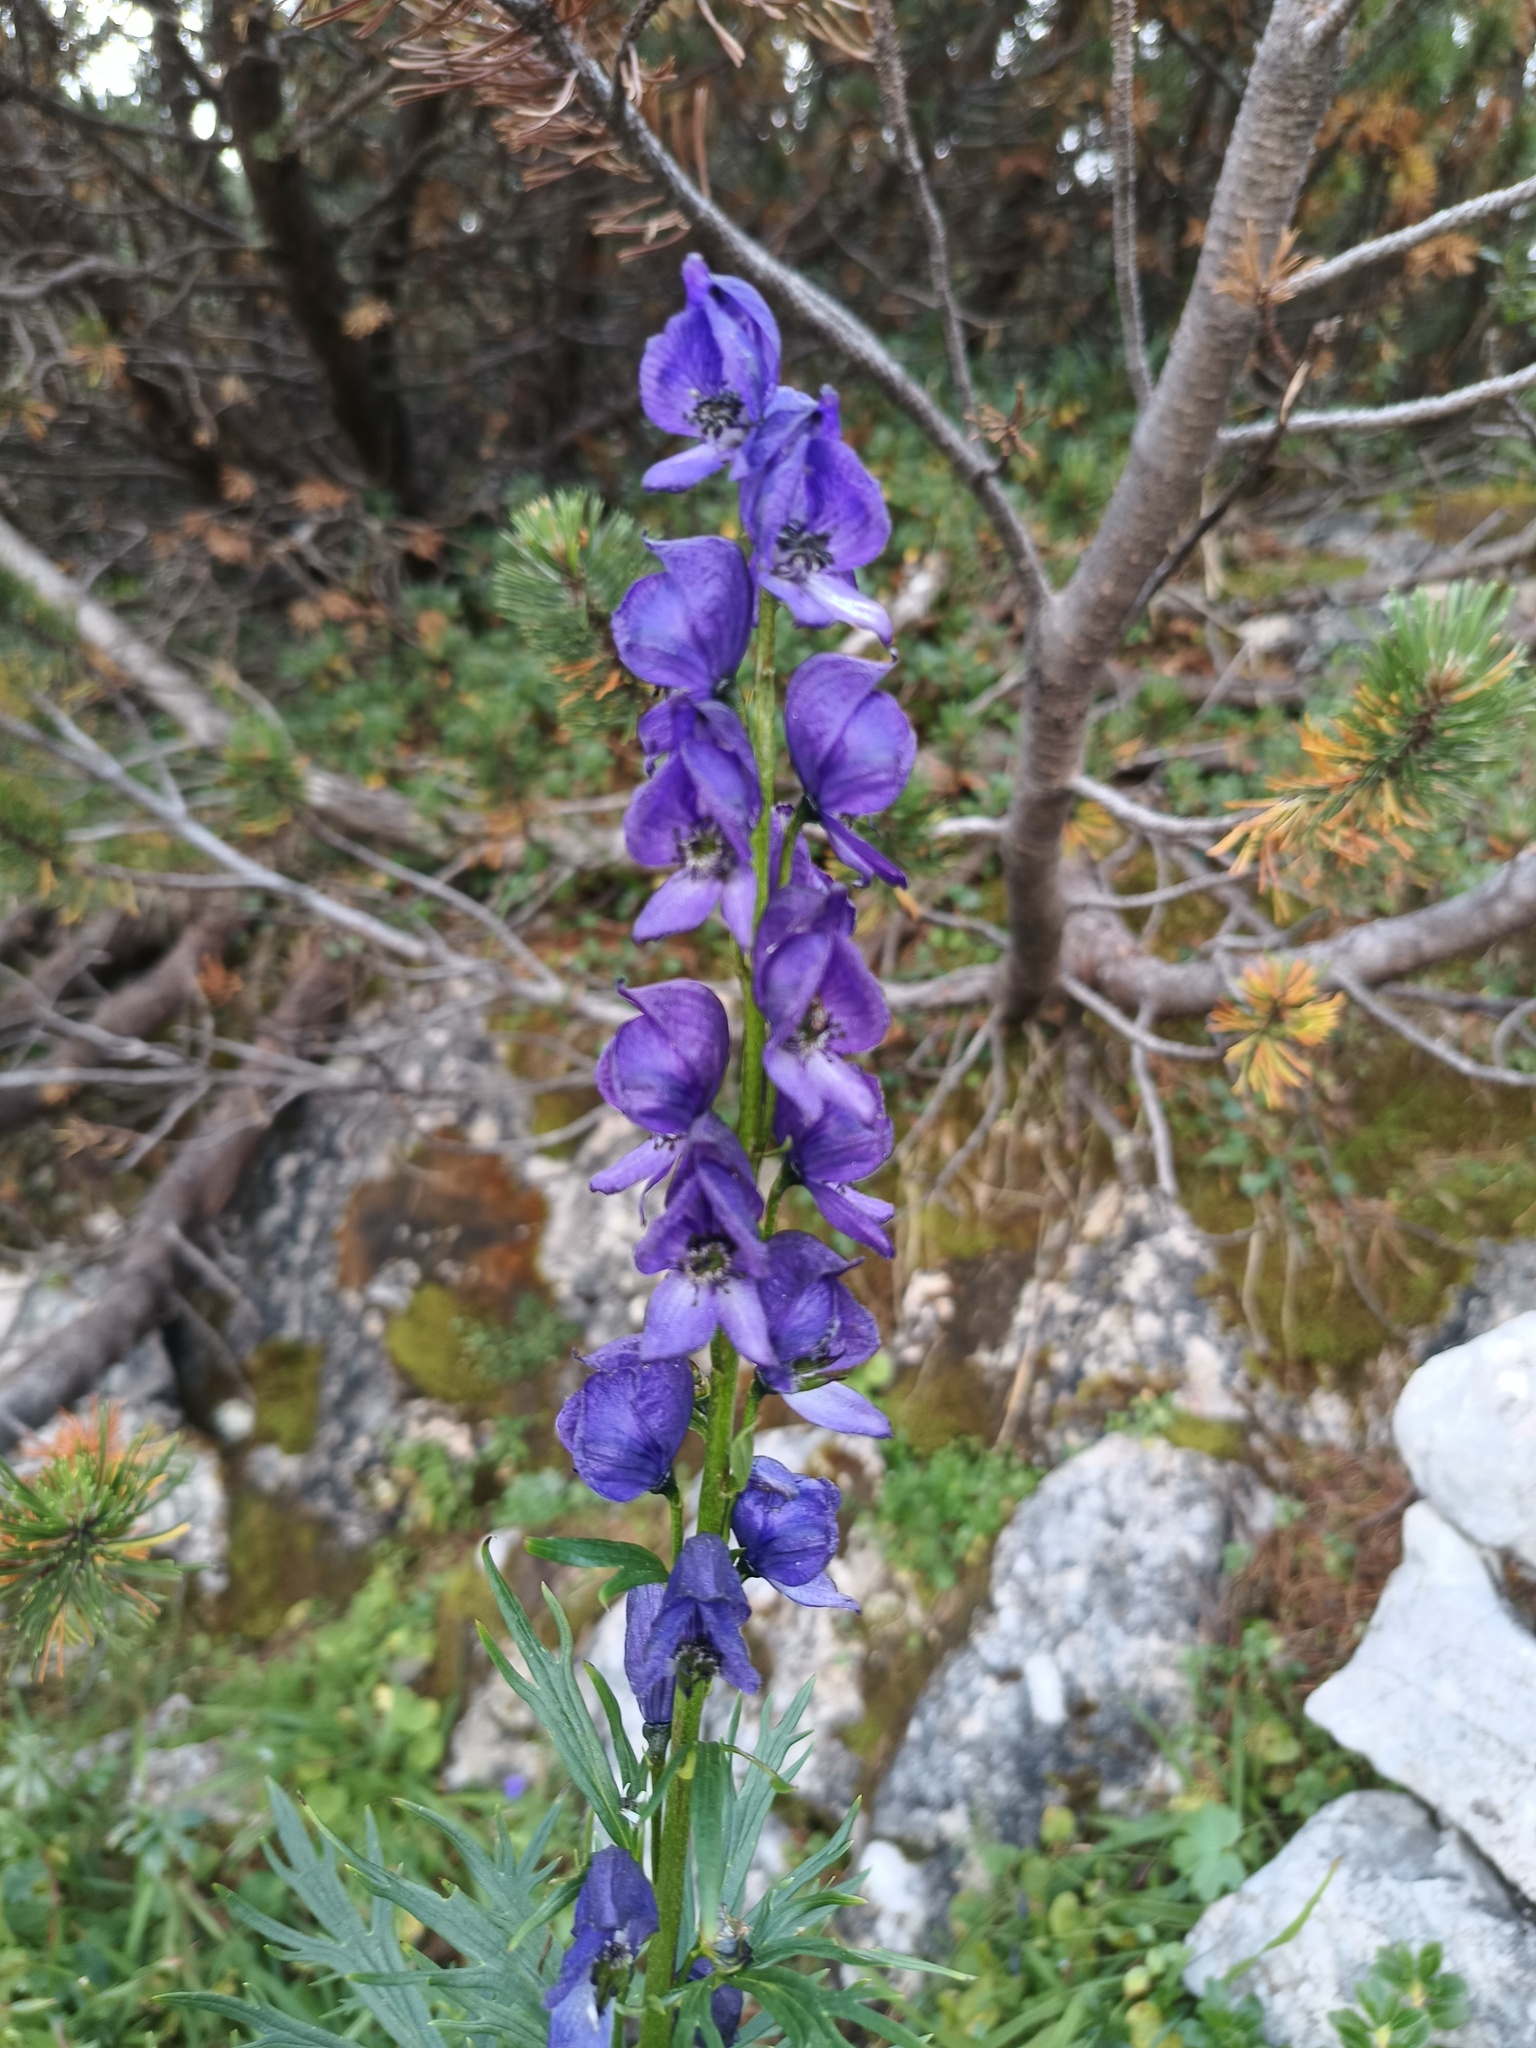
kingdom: Plantae
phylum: Tracheophyta
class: Magnoliopsida
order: Ranunculales
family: Ranunculaceae
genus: Aconitum
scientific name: Aconitum tauricum
